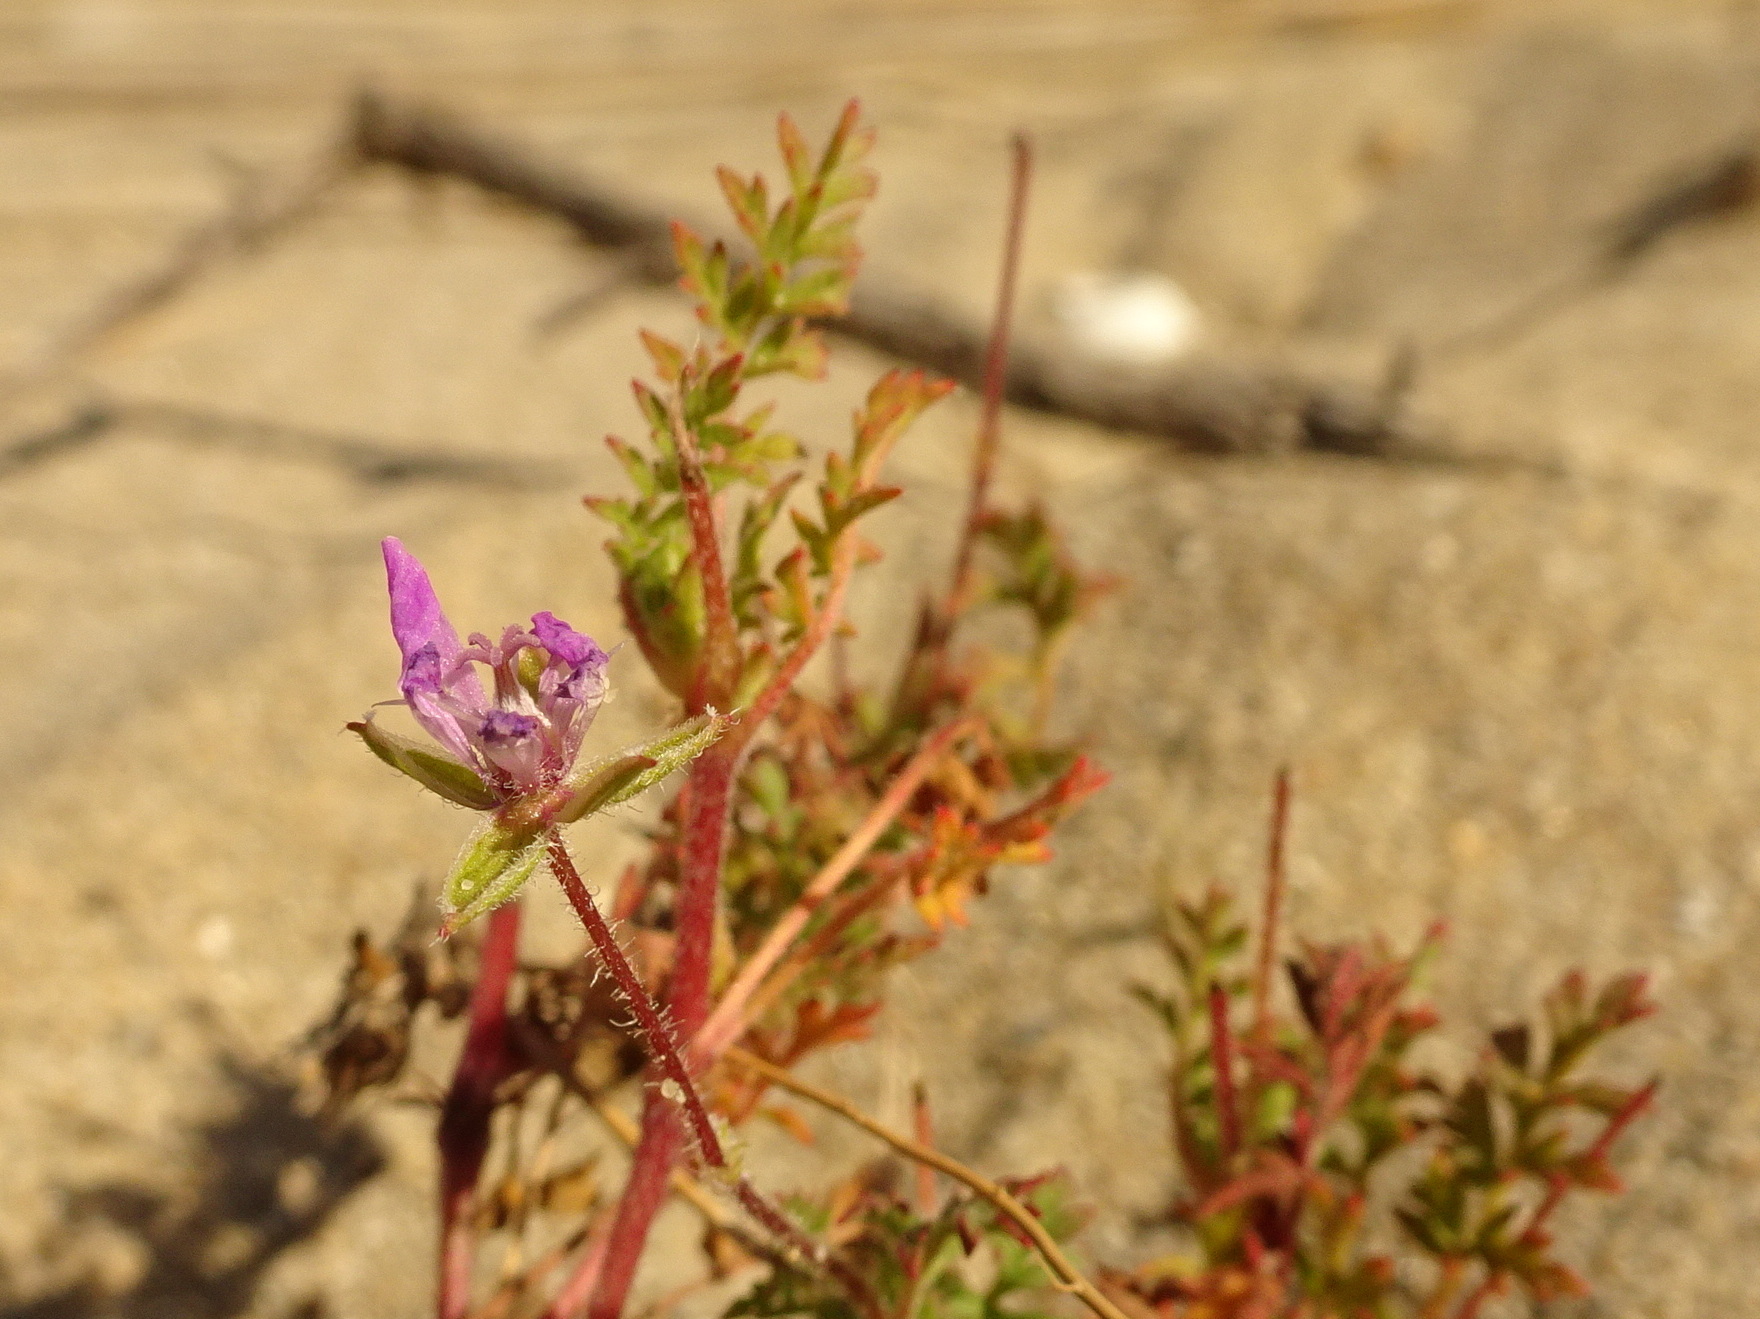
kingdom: Plantae
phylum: Tracheophyta
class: Magnoliopsida
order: Geraniales
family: Geraniaceae
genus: Erodium
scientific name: Erodium cicutarium
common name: Common stork's-bill
